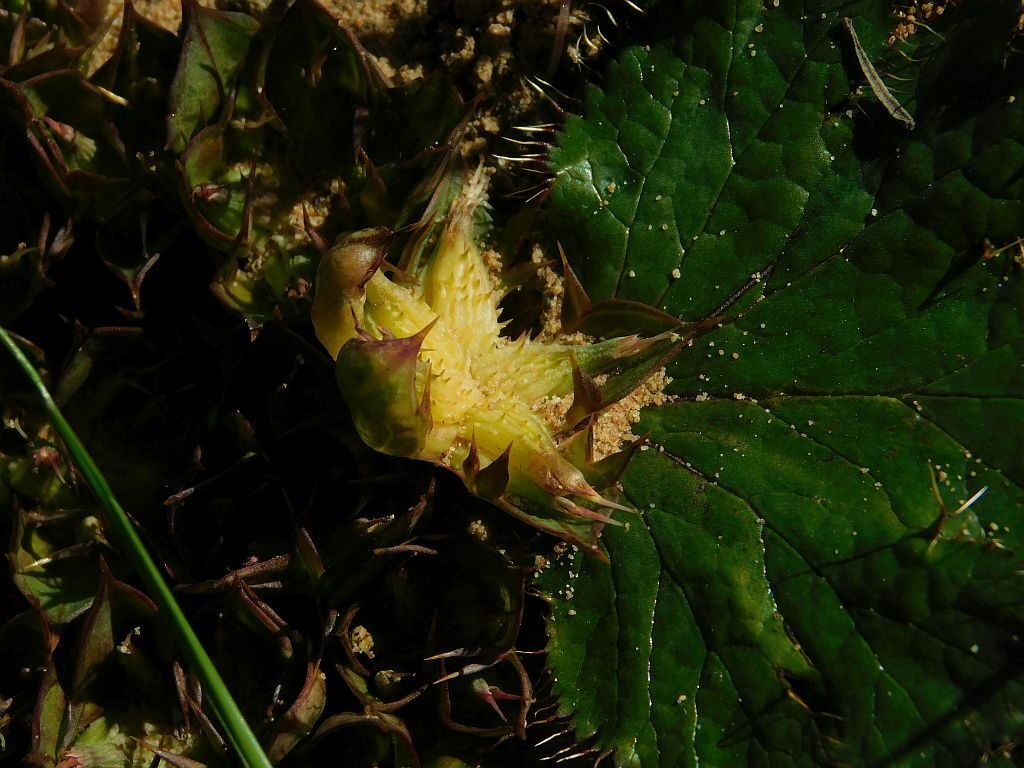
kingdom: Plantae
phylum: Tracheophyta
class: Magnoliopsida
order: Apiales
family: Apiaceae
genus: Arctopus
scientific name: Arctopus echinatus
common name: Platdoring
